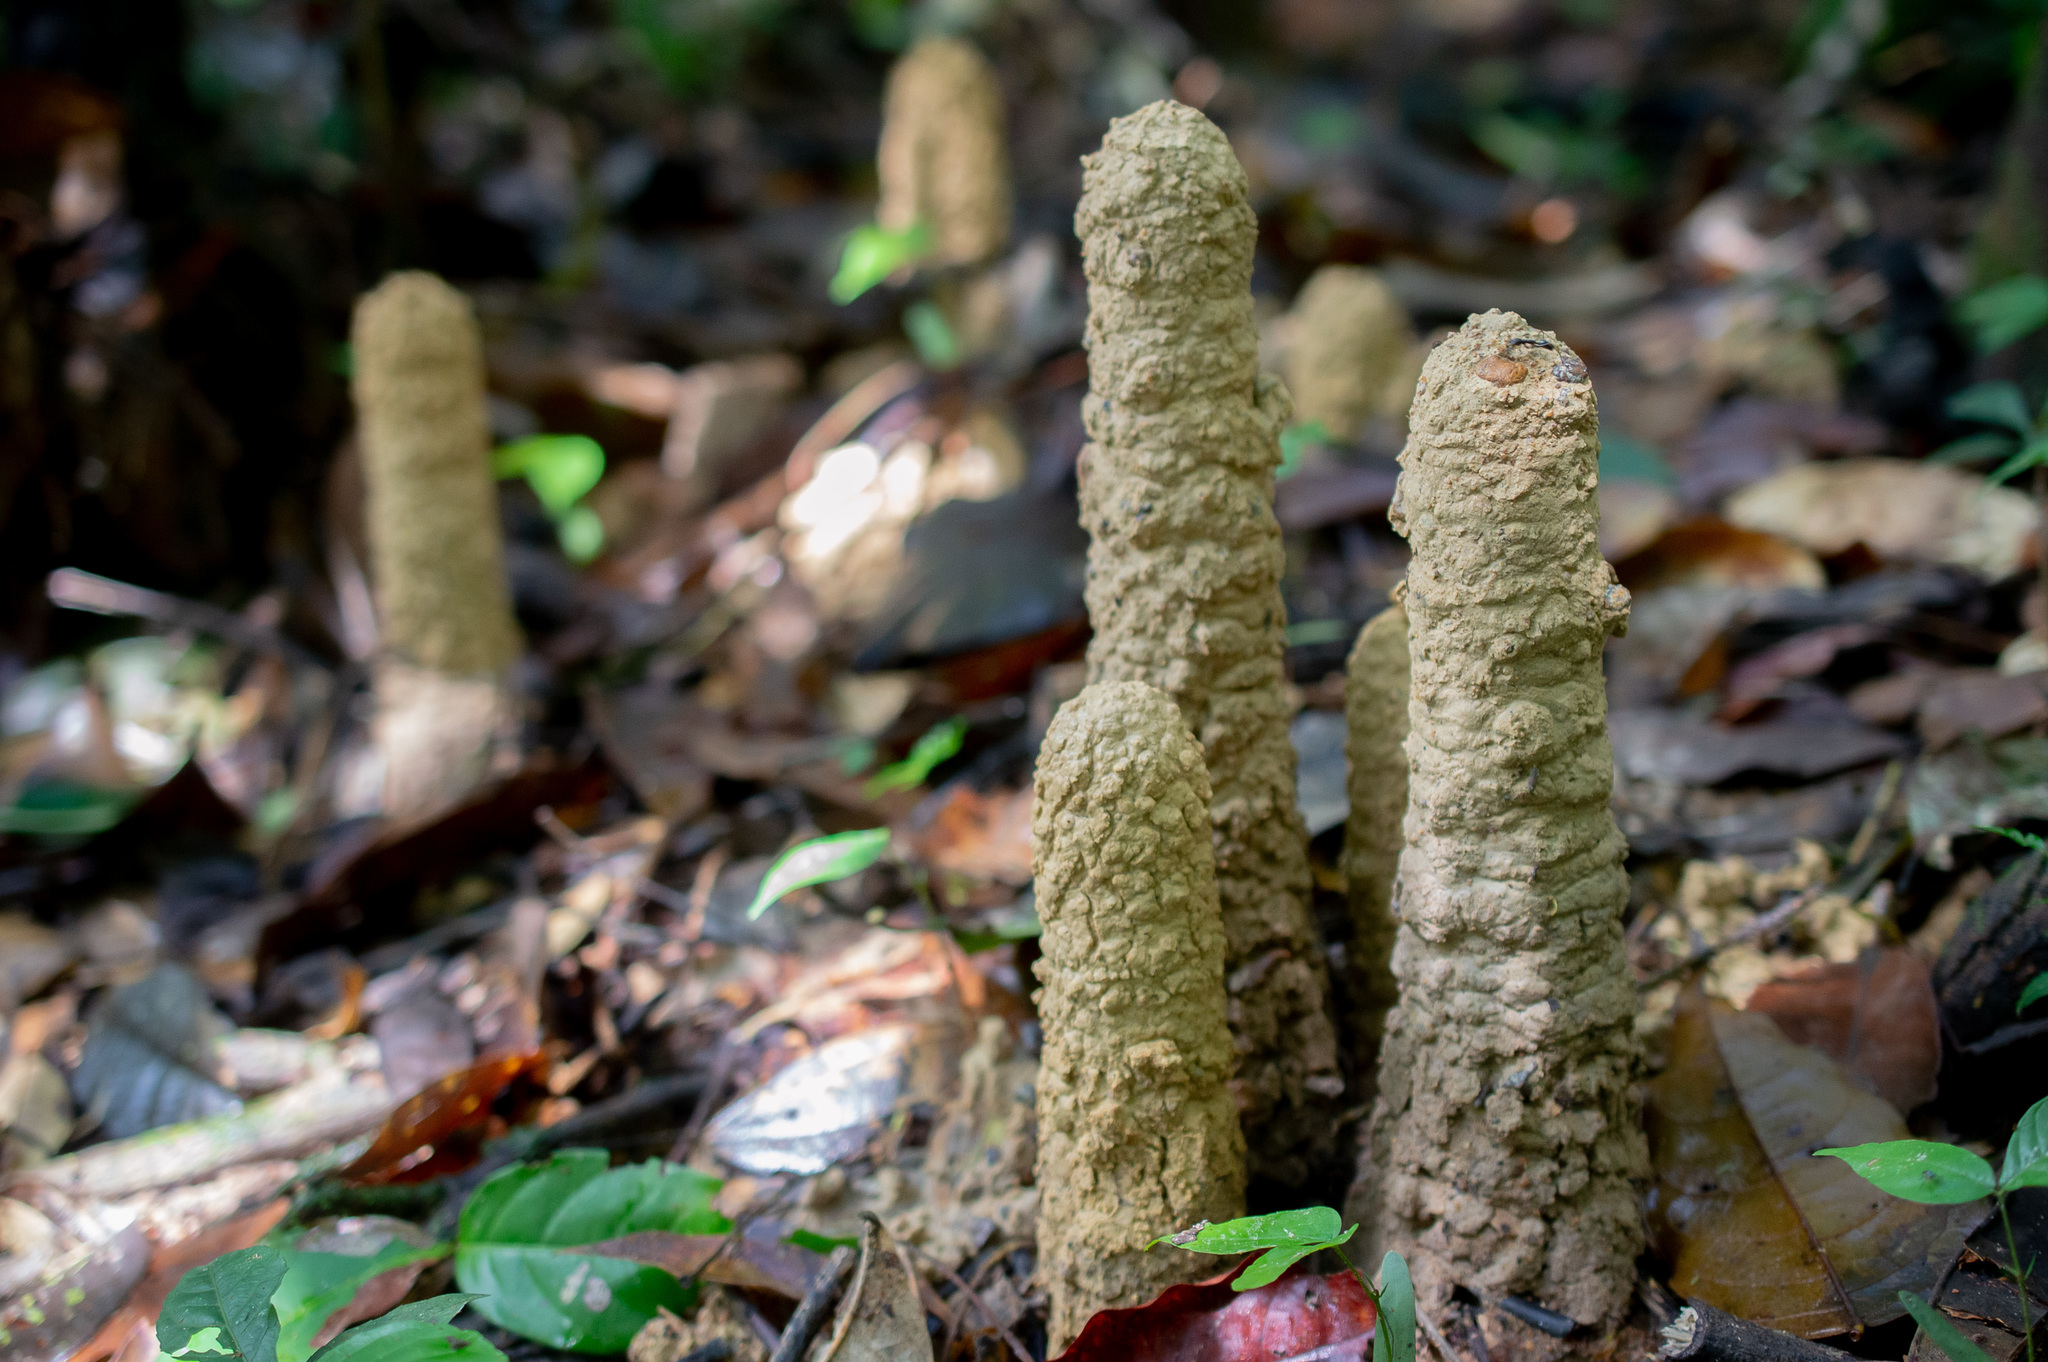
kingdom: Animalia
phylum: Arthropoda
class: Insecta
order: Hemiptera
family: Cicadidae
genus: Guyalna
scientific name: Guyalna chlorogena
